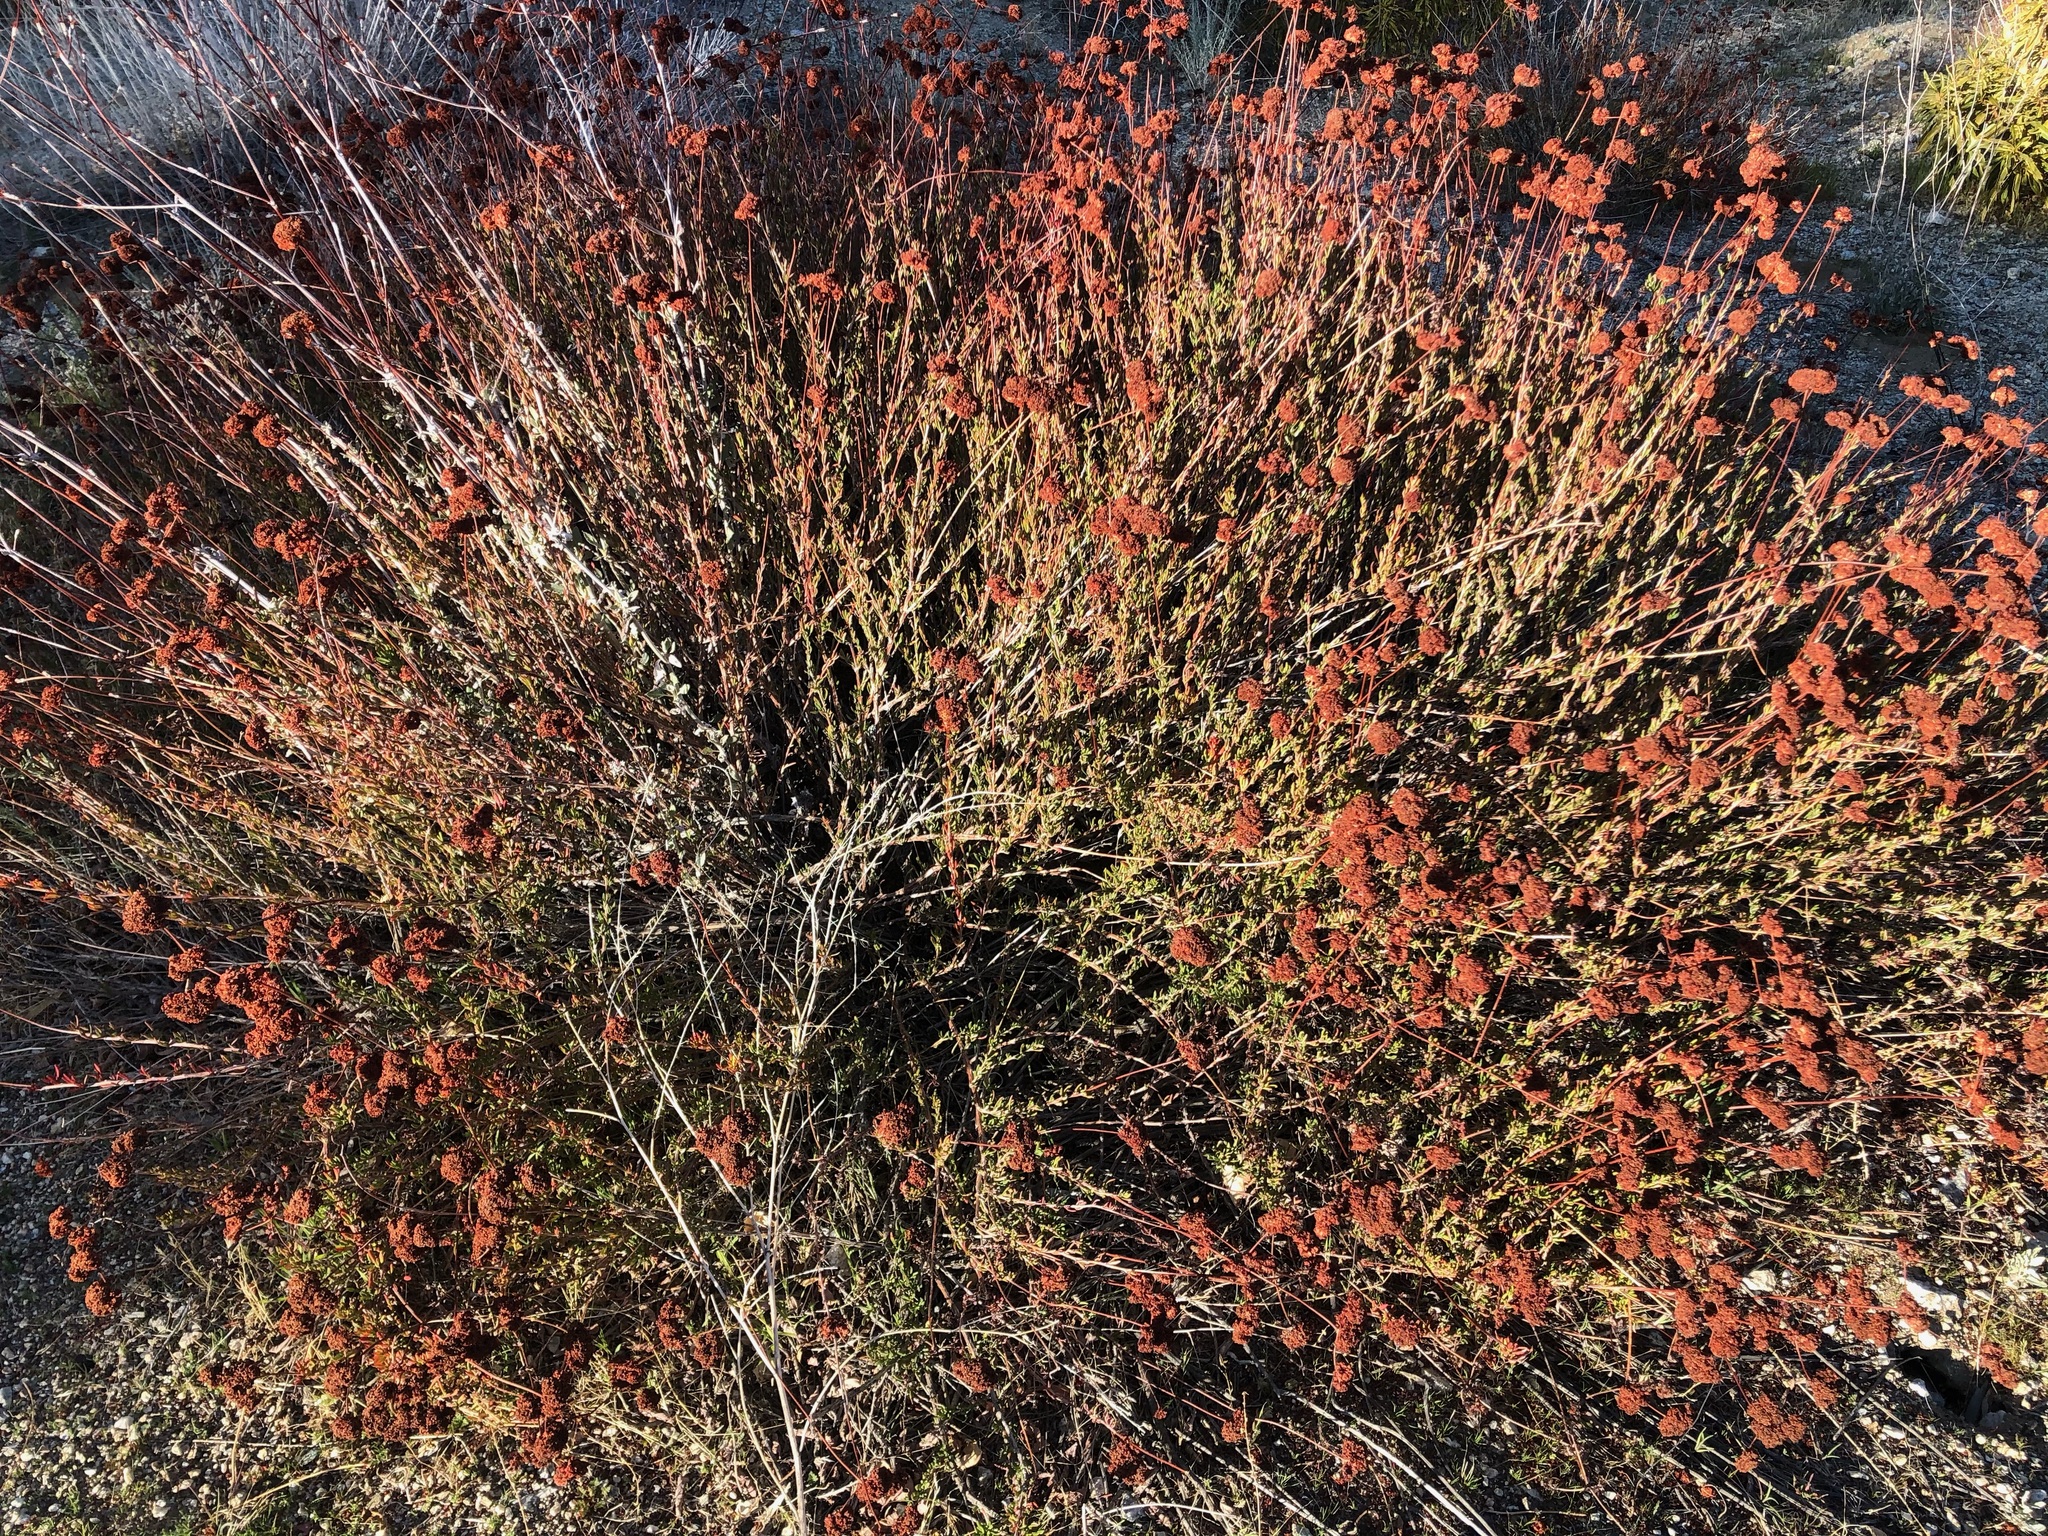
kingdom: Plantae
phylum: Tracheophyta
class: Magnoliopsida
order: Caryophyllales
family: Polygonaceae
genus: Eriogonum
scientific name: Eriogonum fasciculatum
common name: California wild buckwheat
